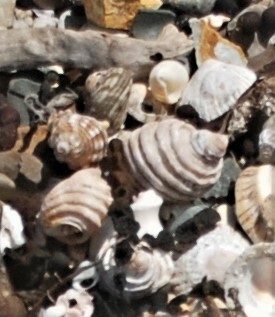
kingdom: Animalia
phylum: Mollusca
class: Gastropoda
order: Neogastropoda
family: Muricidae
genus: Dicathais
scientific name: Dicathais orbita
